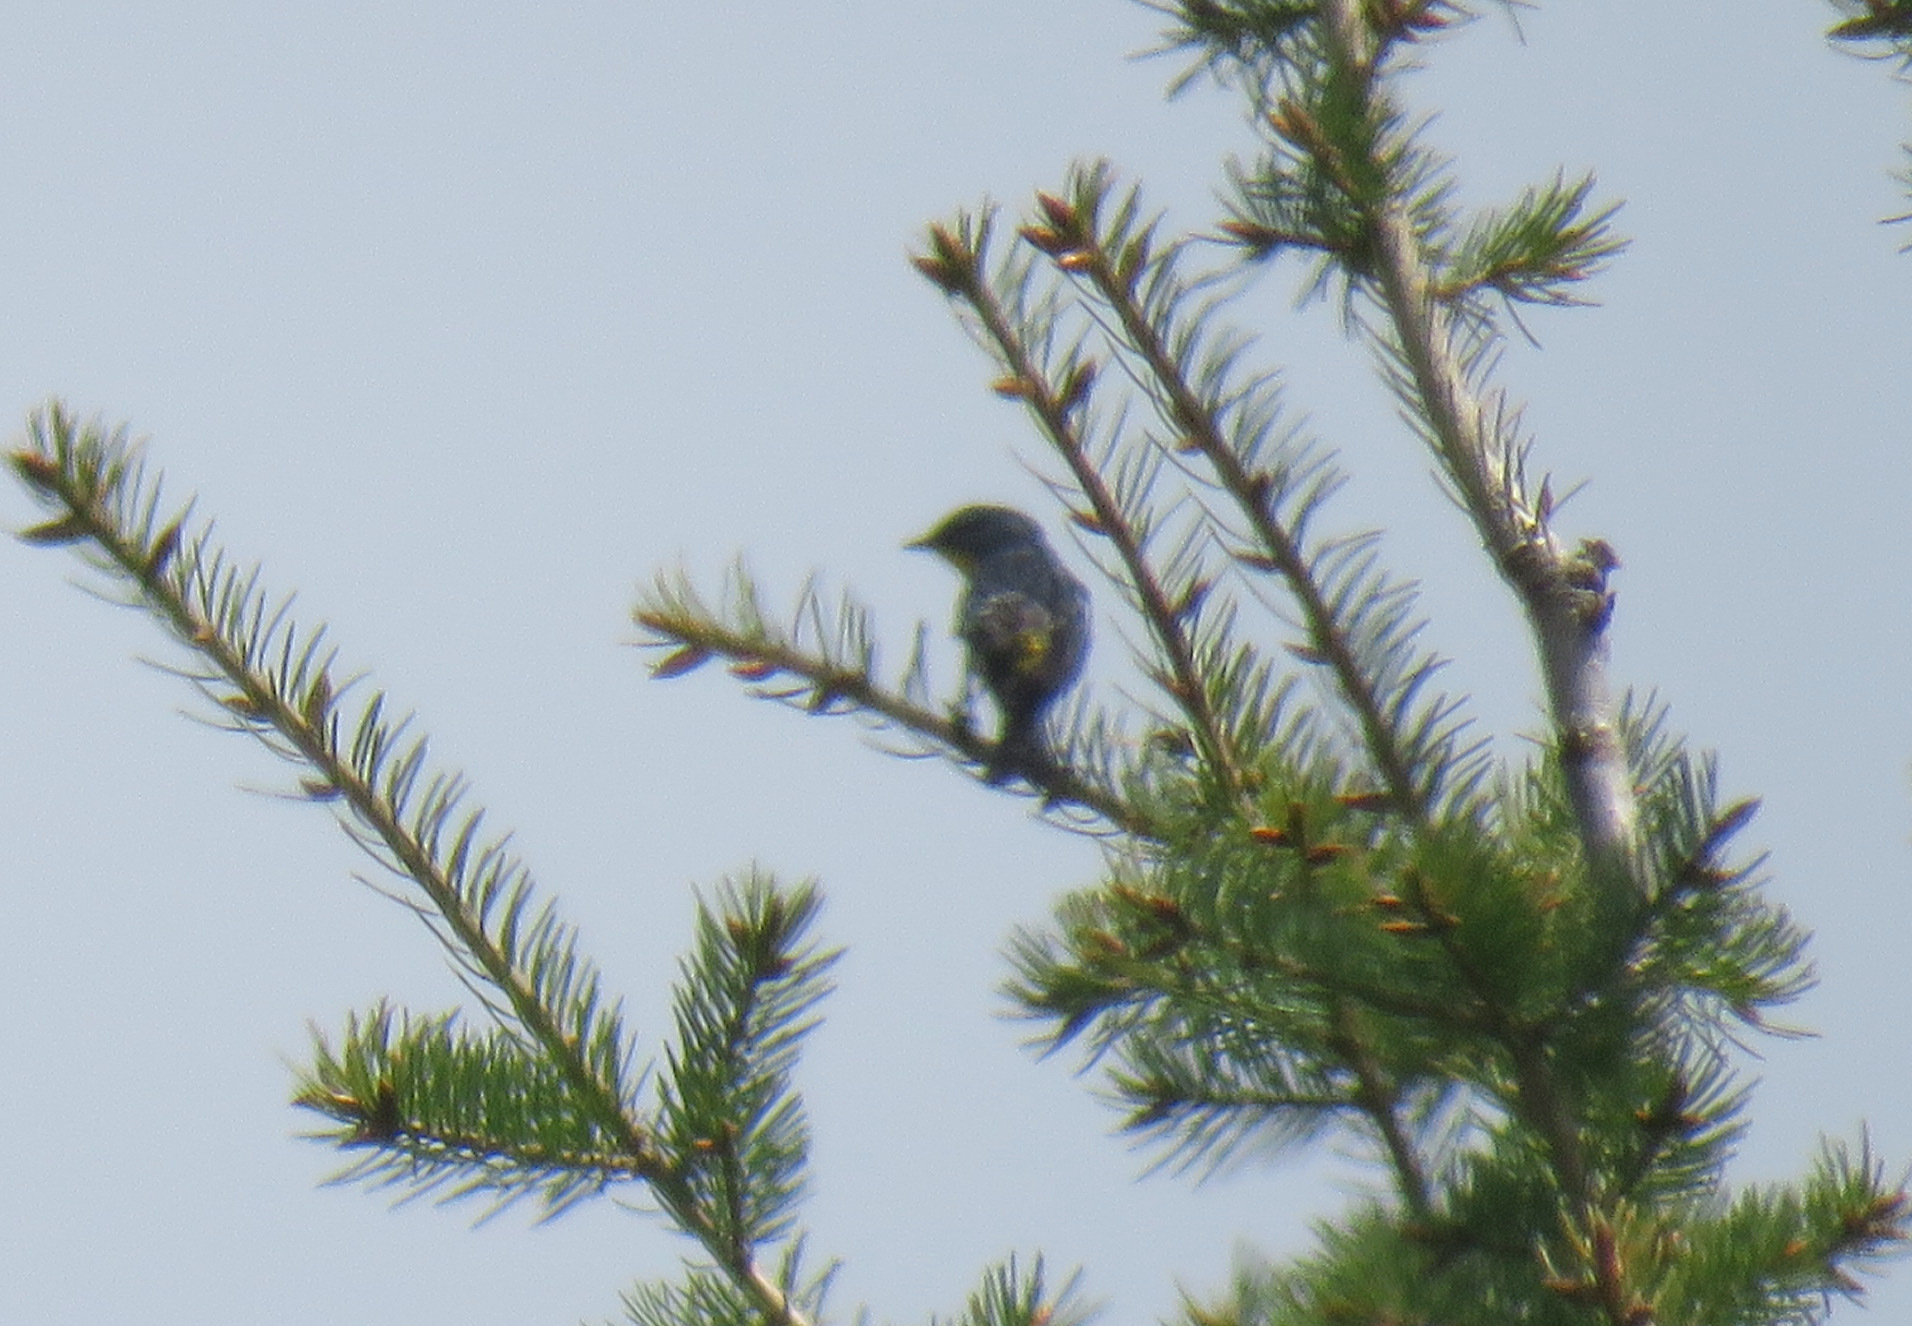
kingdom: Animalia
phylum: Chordata
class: Aves
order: Passeriformes
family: Parulidae
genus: Setophaga
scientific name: Setophaga coronata
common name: Myrtle warbler
